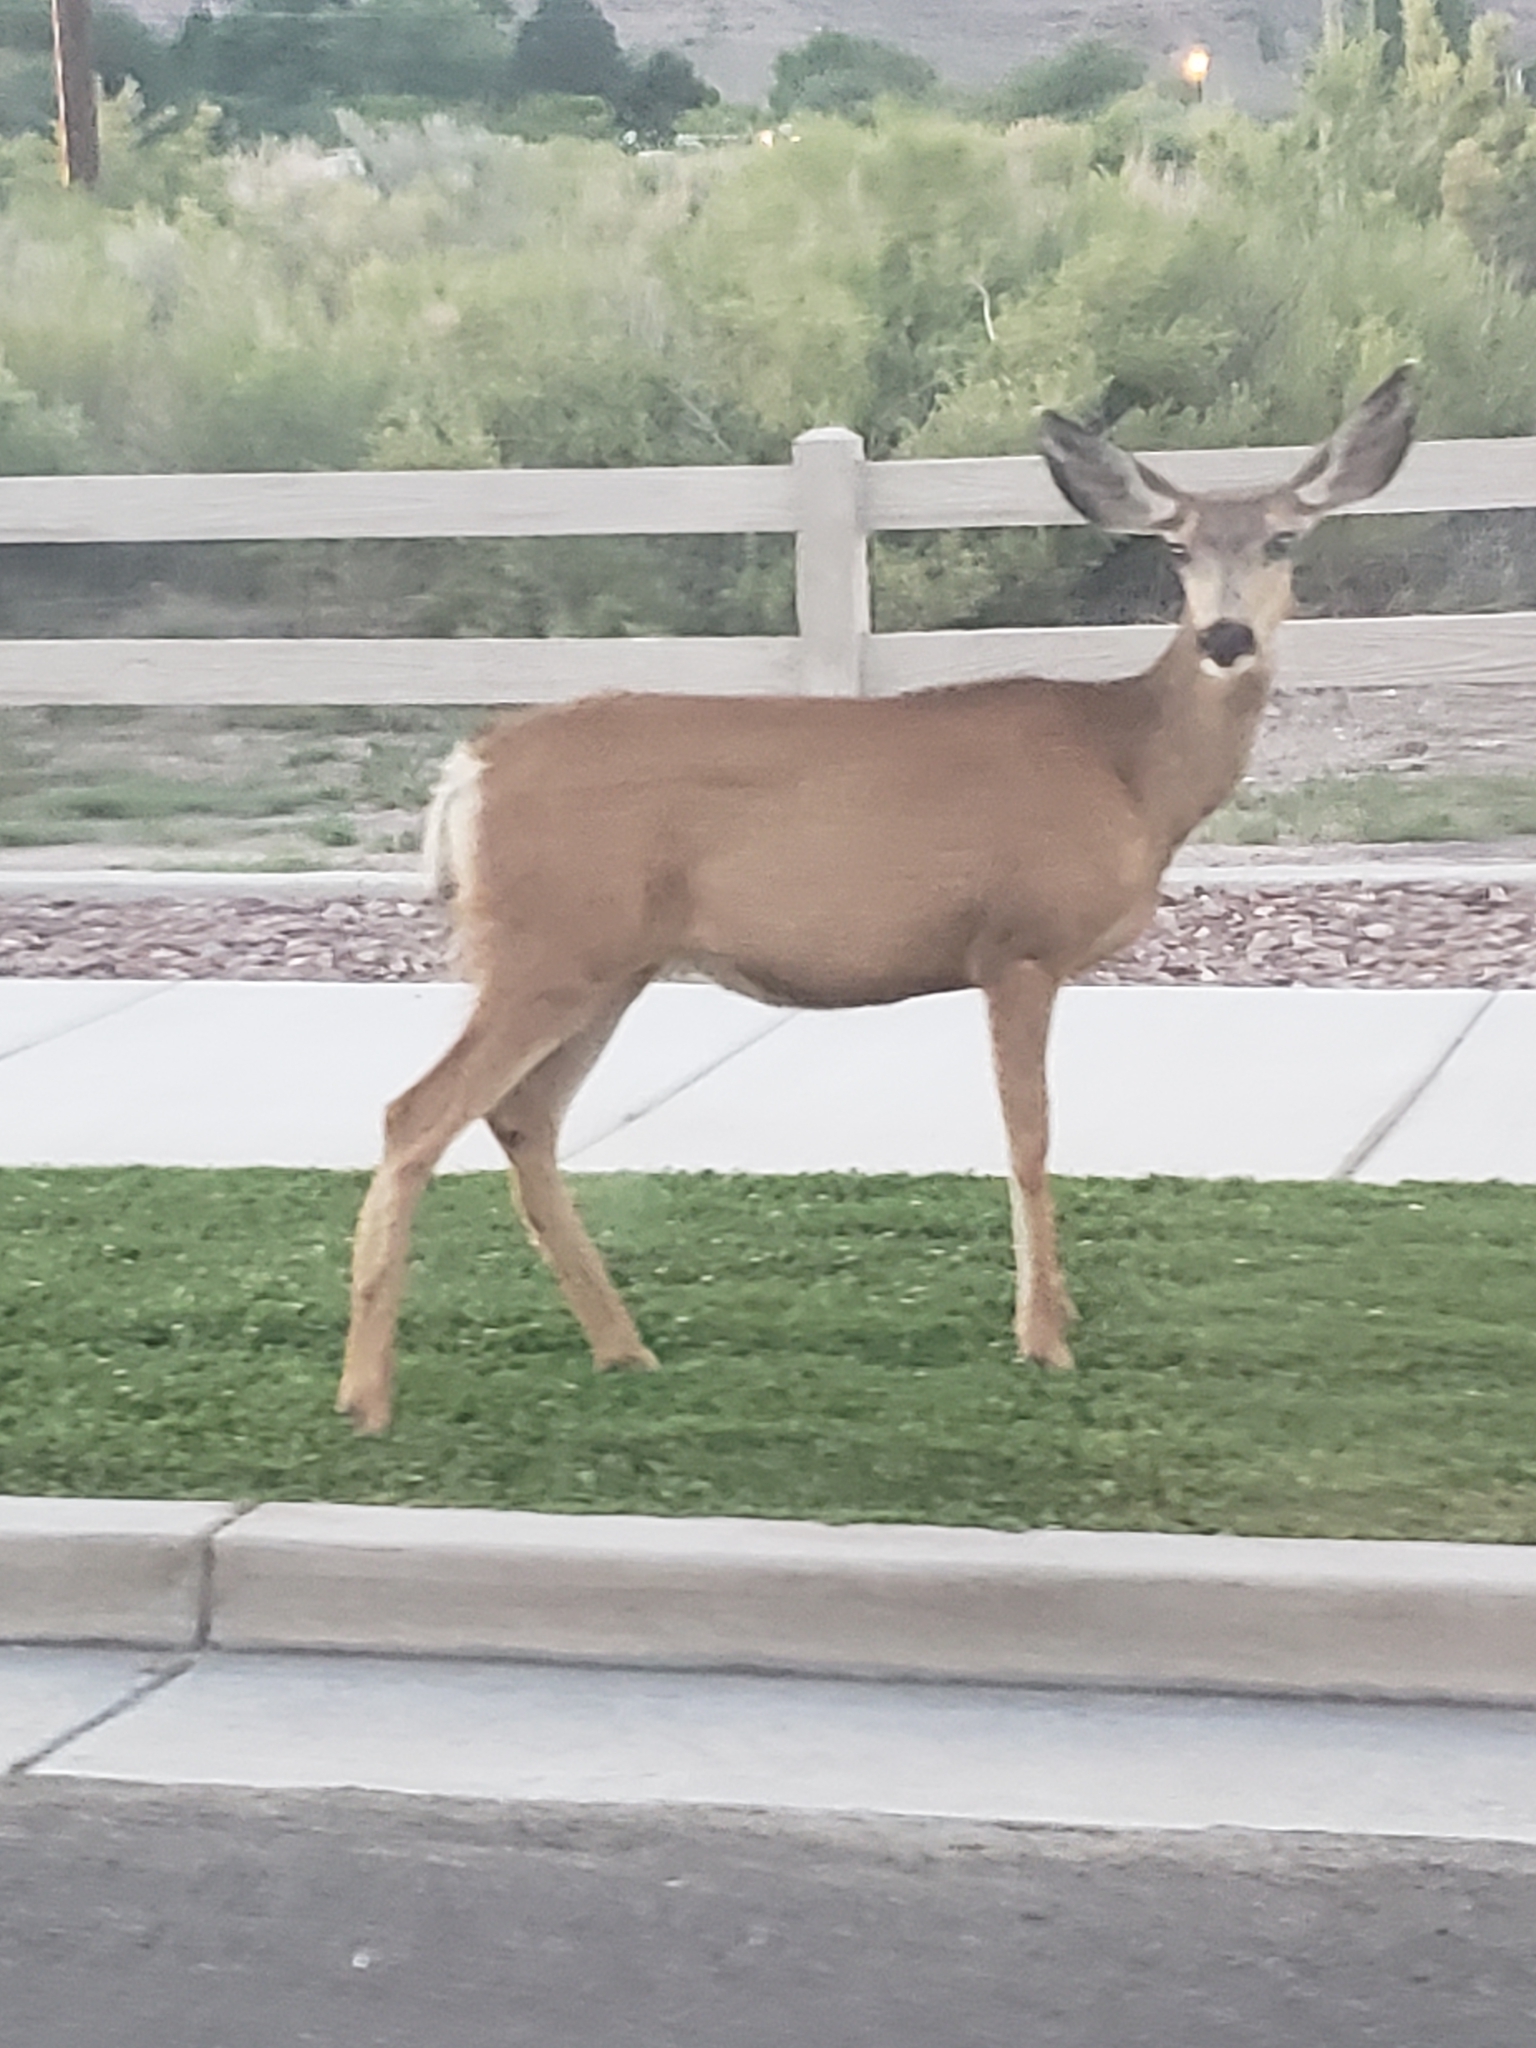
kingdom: Animalia
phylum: Chordata
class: Mammalia
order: Artiodactyla
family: Cervidae
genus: Odocoileus
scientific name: Odocoileus hemionus
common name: Mule deer
